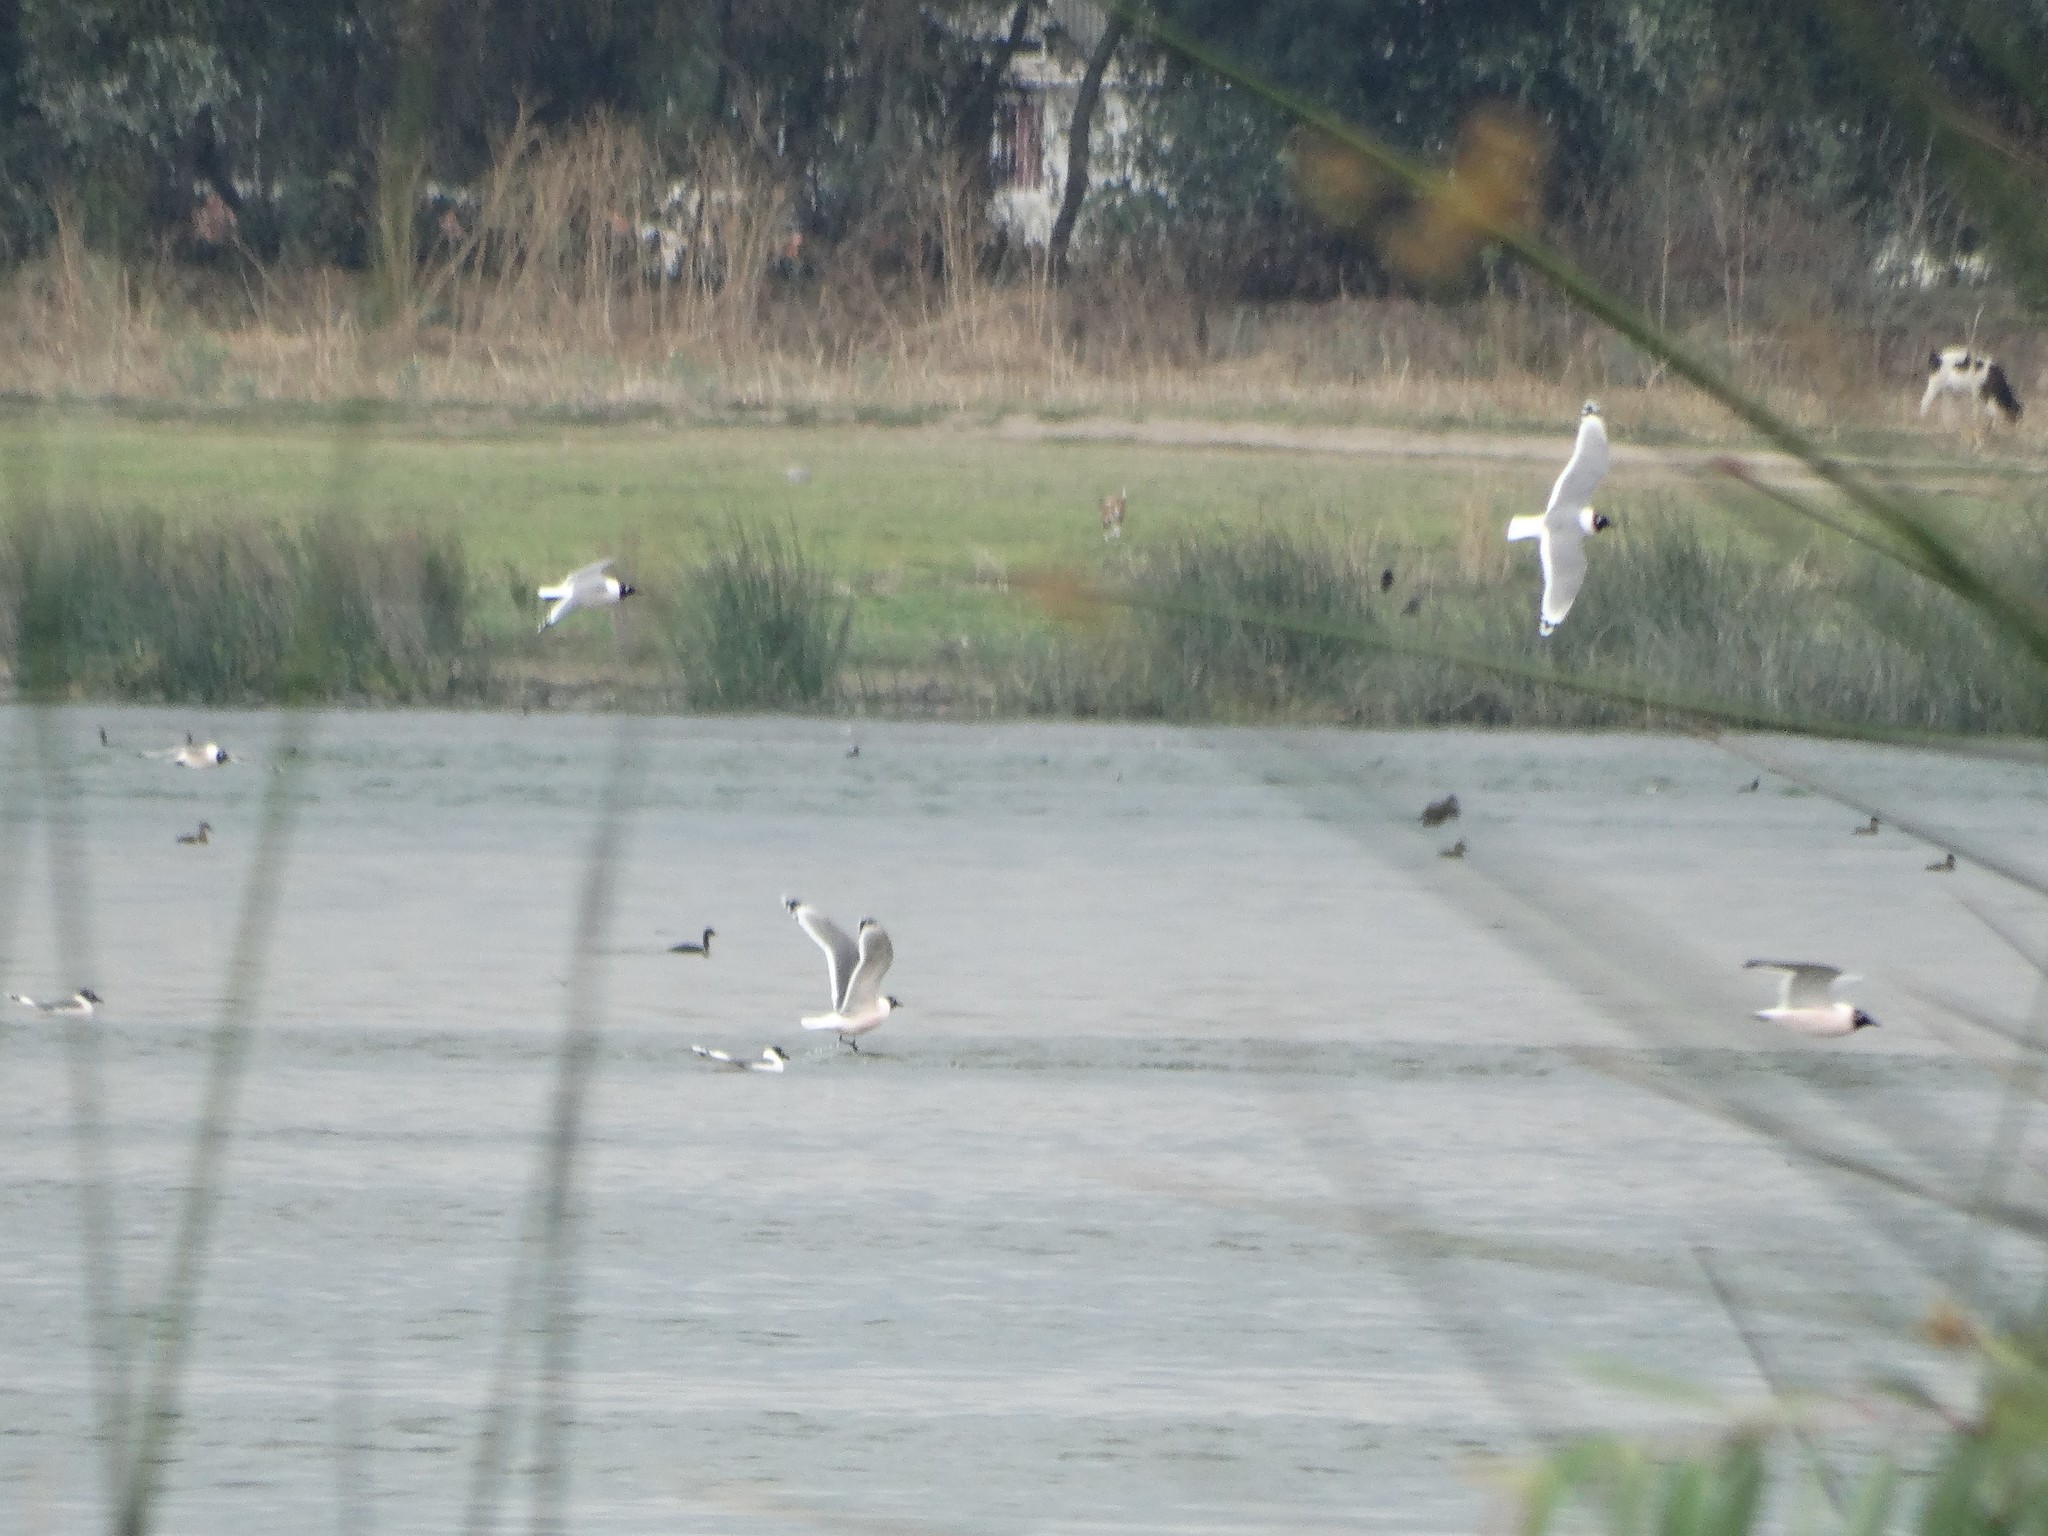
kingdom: Animalia
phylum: Chordata
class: Aves
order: Charadriiformes
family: Laridae
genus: Leucophaeus
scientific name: Leucophaeus pipixcan
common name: Franklin's gull
